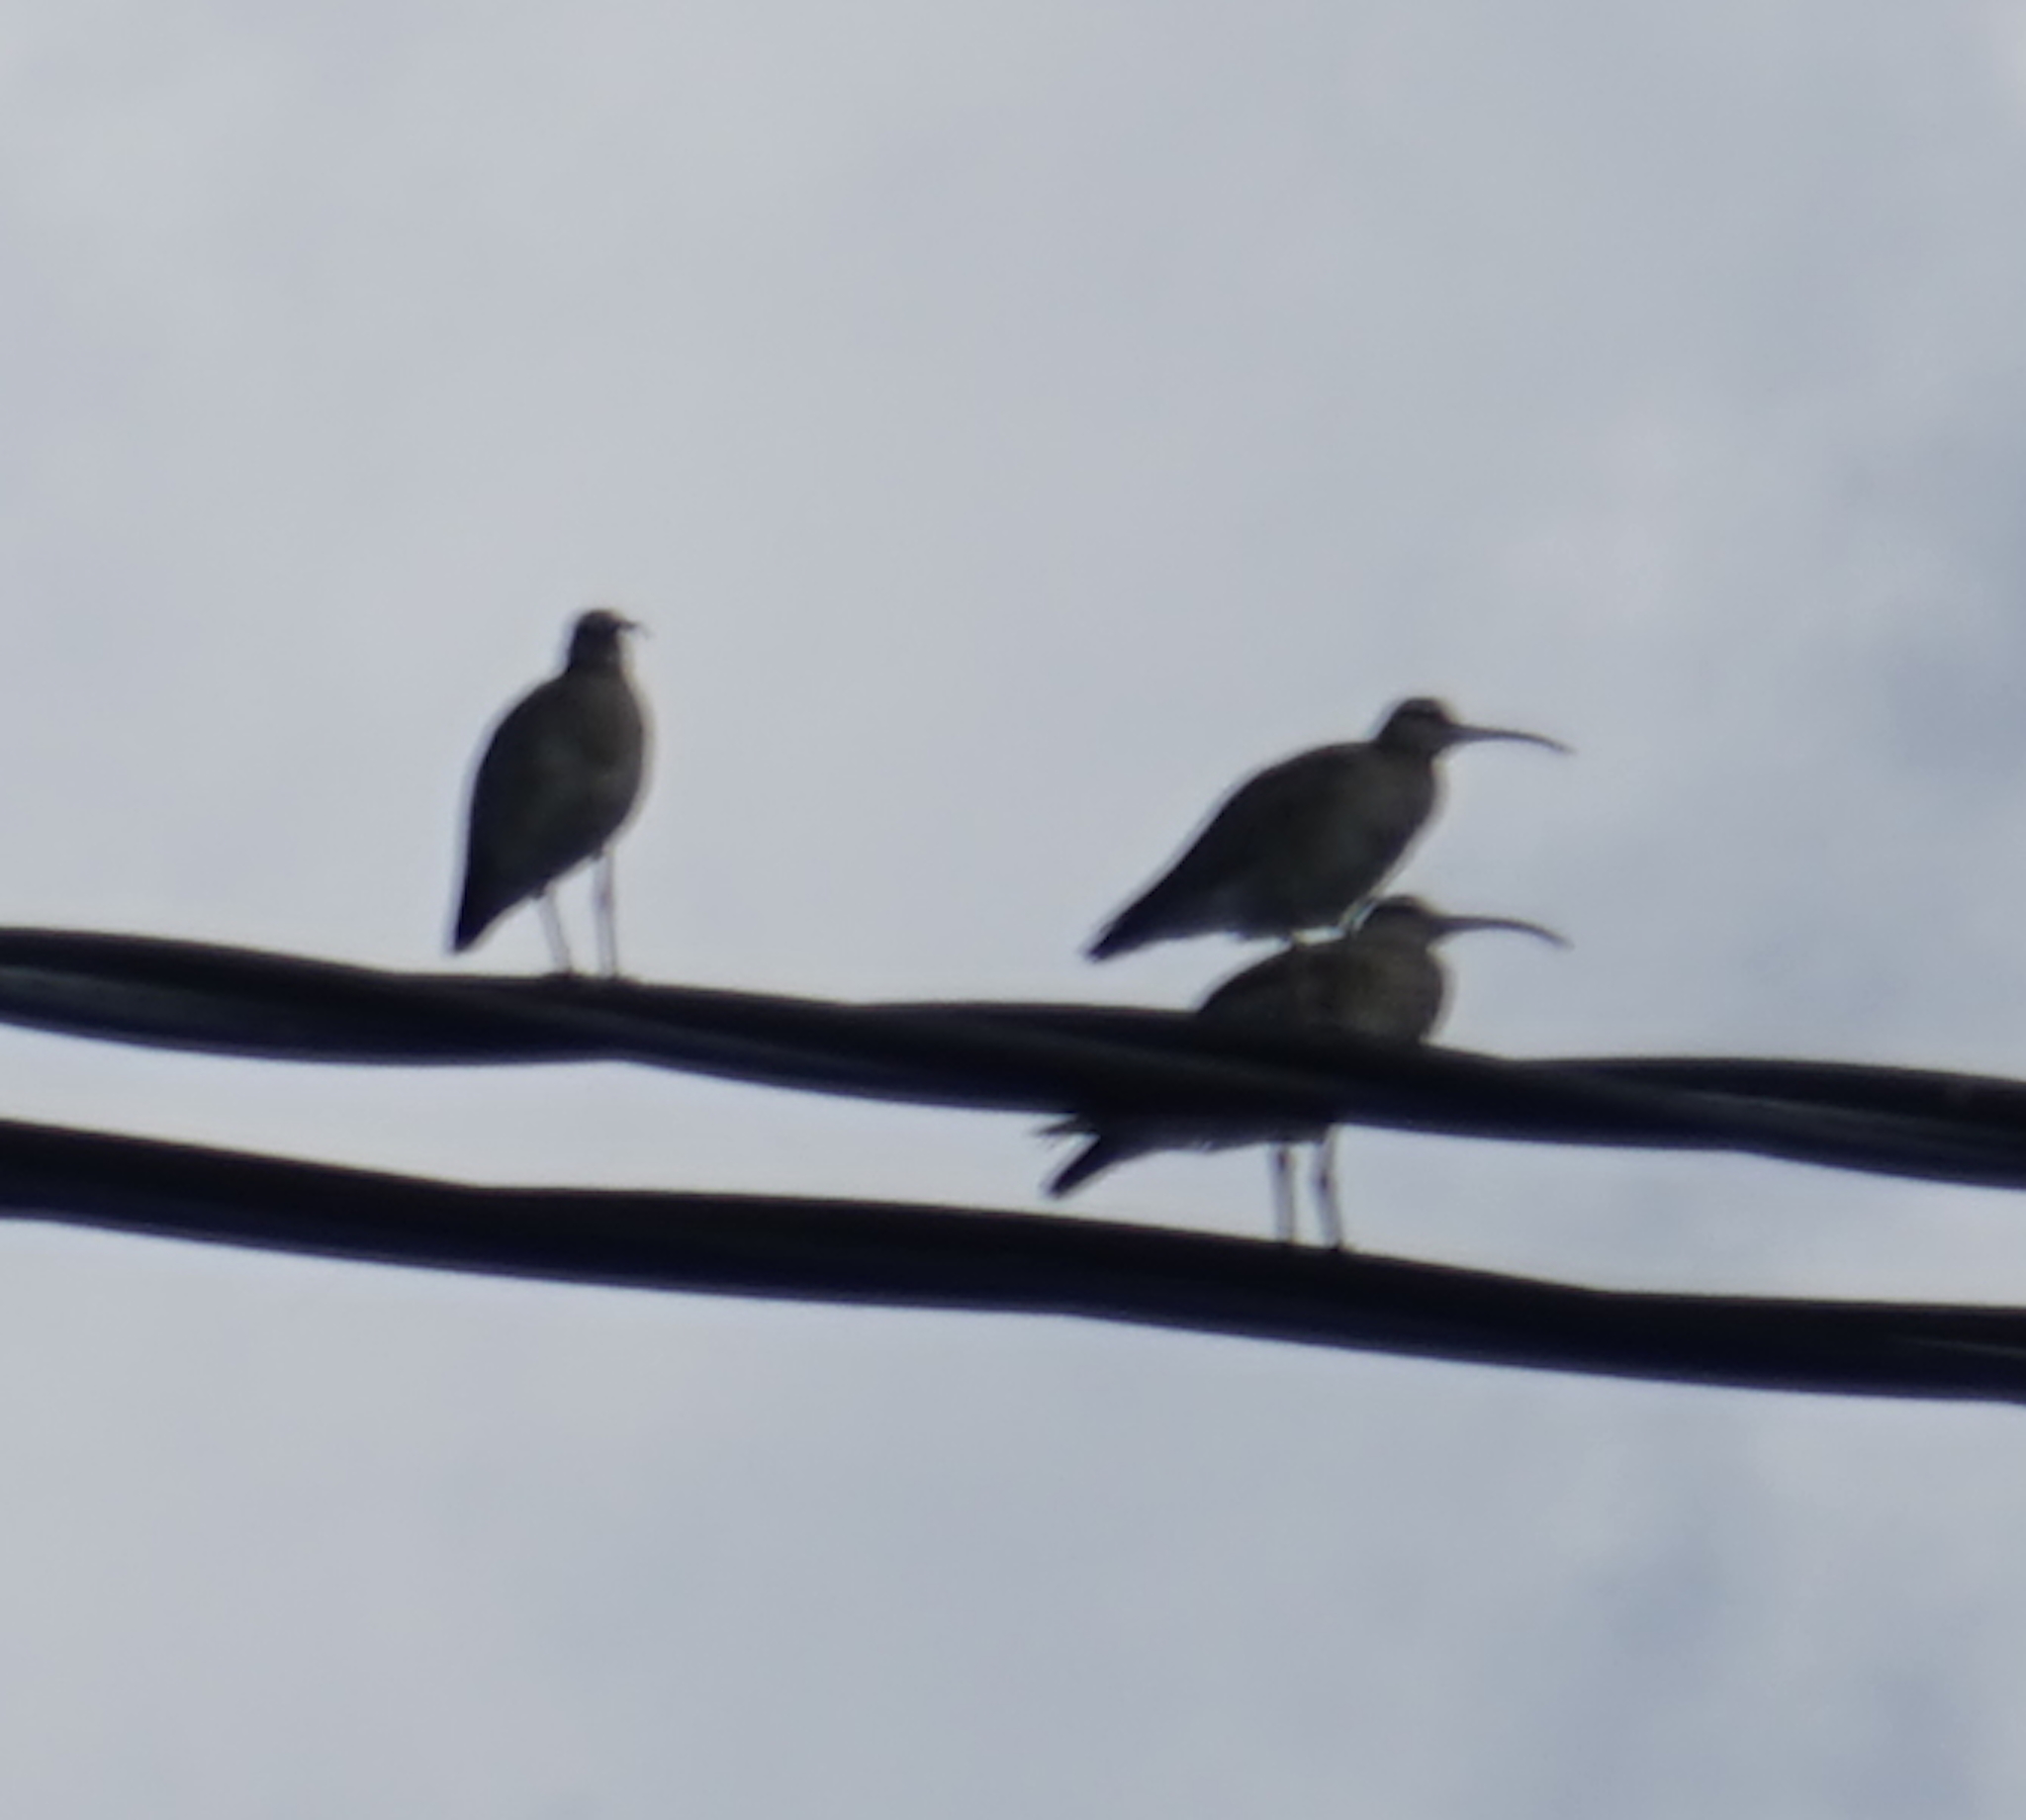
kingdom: Animalia
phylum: Chordata
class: Aves
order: Charadriiformes
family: Scolopacidae
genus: Numenius
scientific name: Numenius phaeopus
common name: Whimbrel
